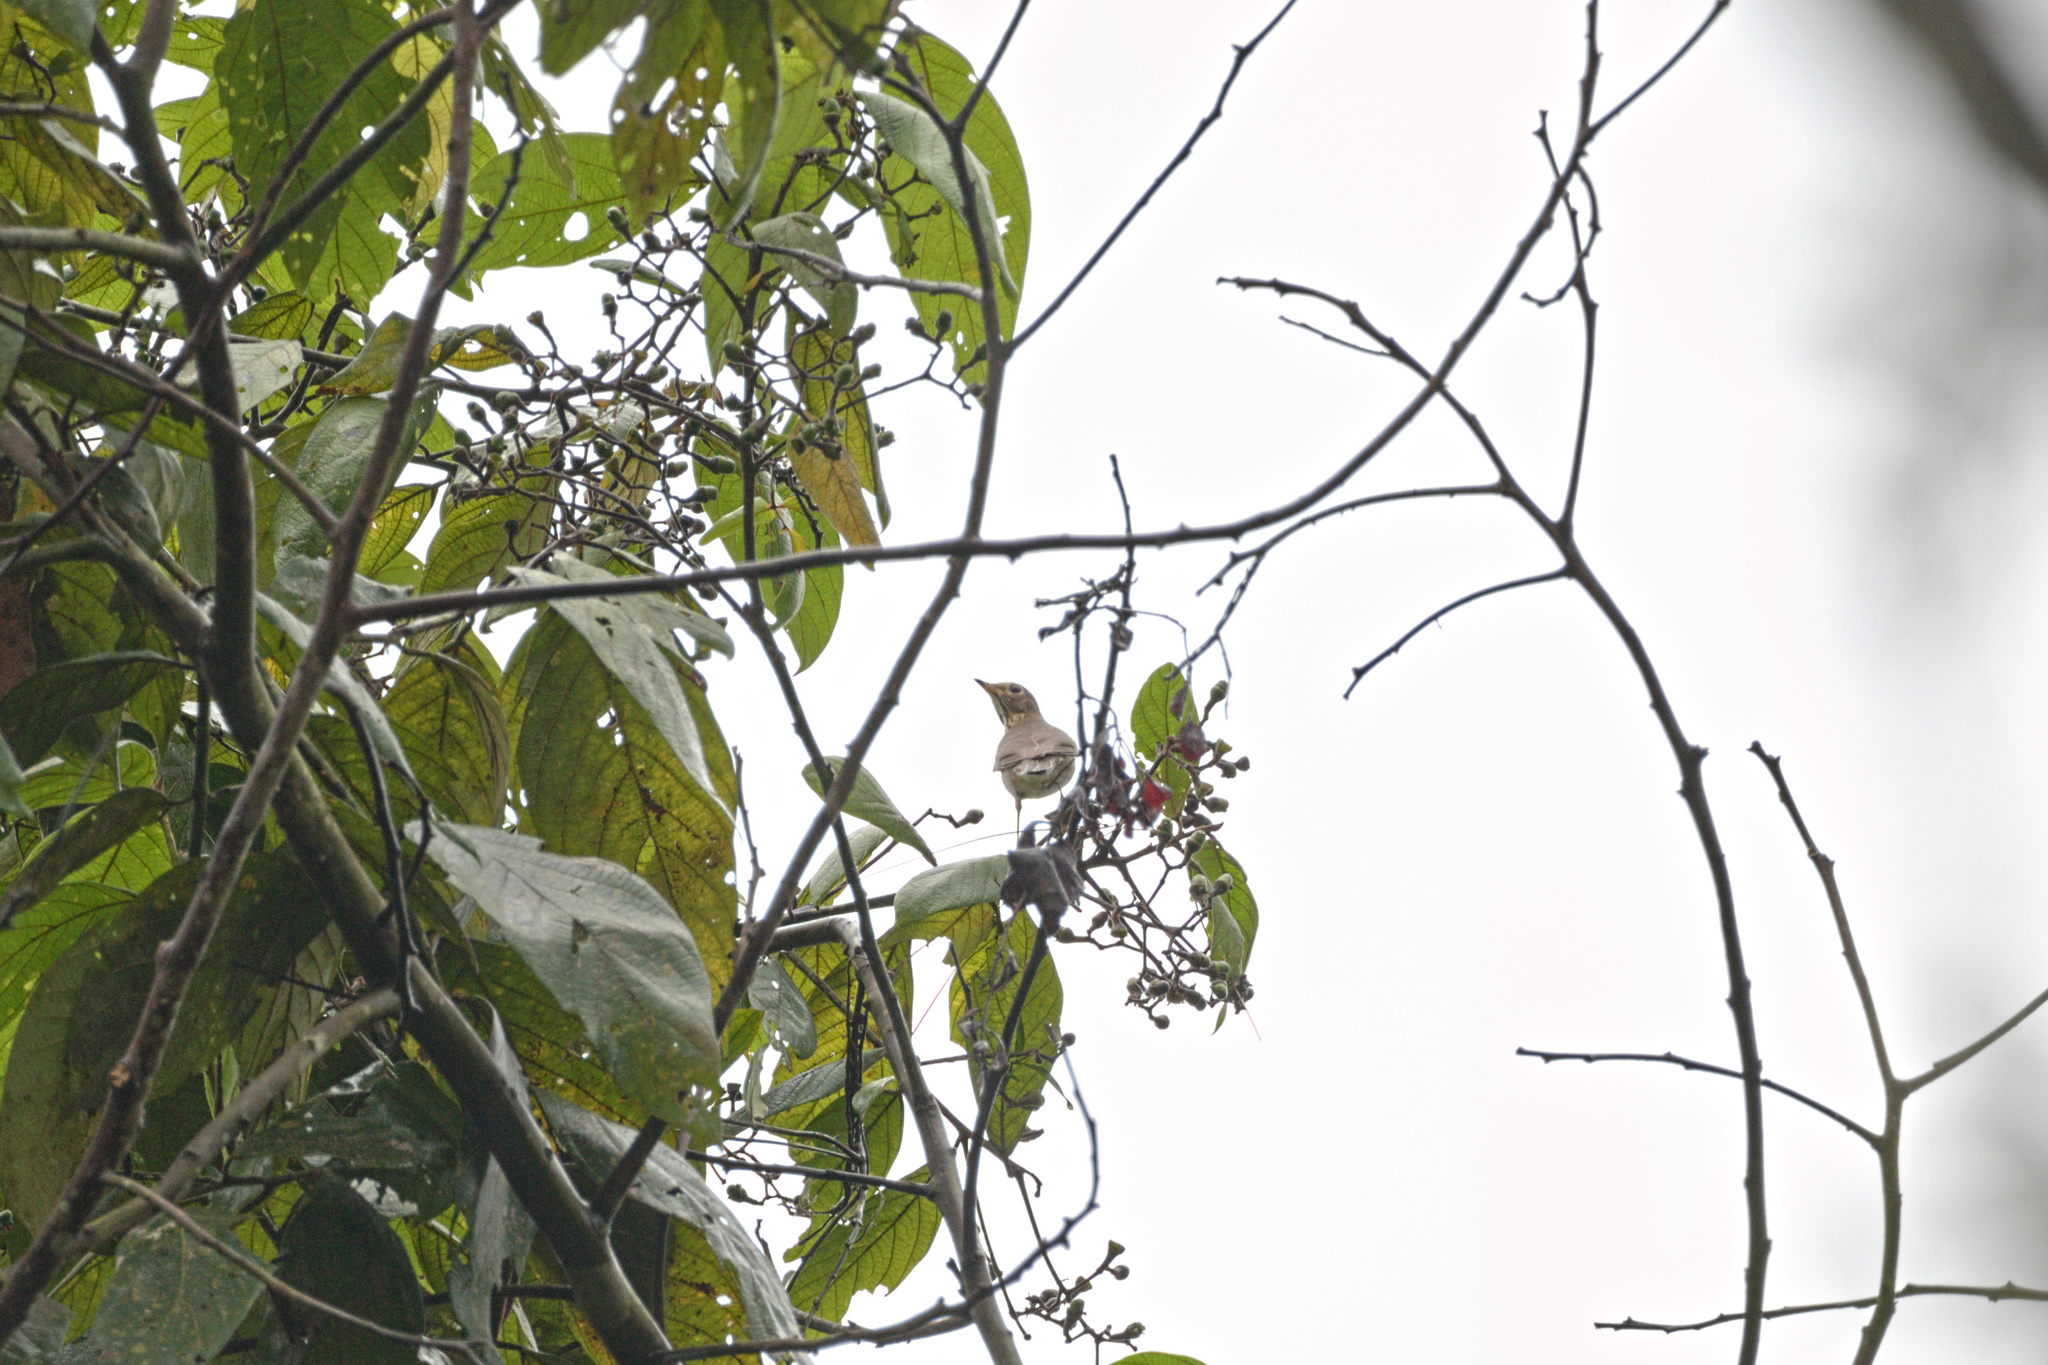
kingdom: Animalia
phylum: Chordata
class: Aves
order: Passeriformes
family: Turdidae
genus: Catharus
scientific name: Catharus ustulatus
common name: Swainson's thrush
